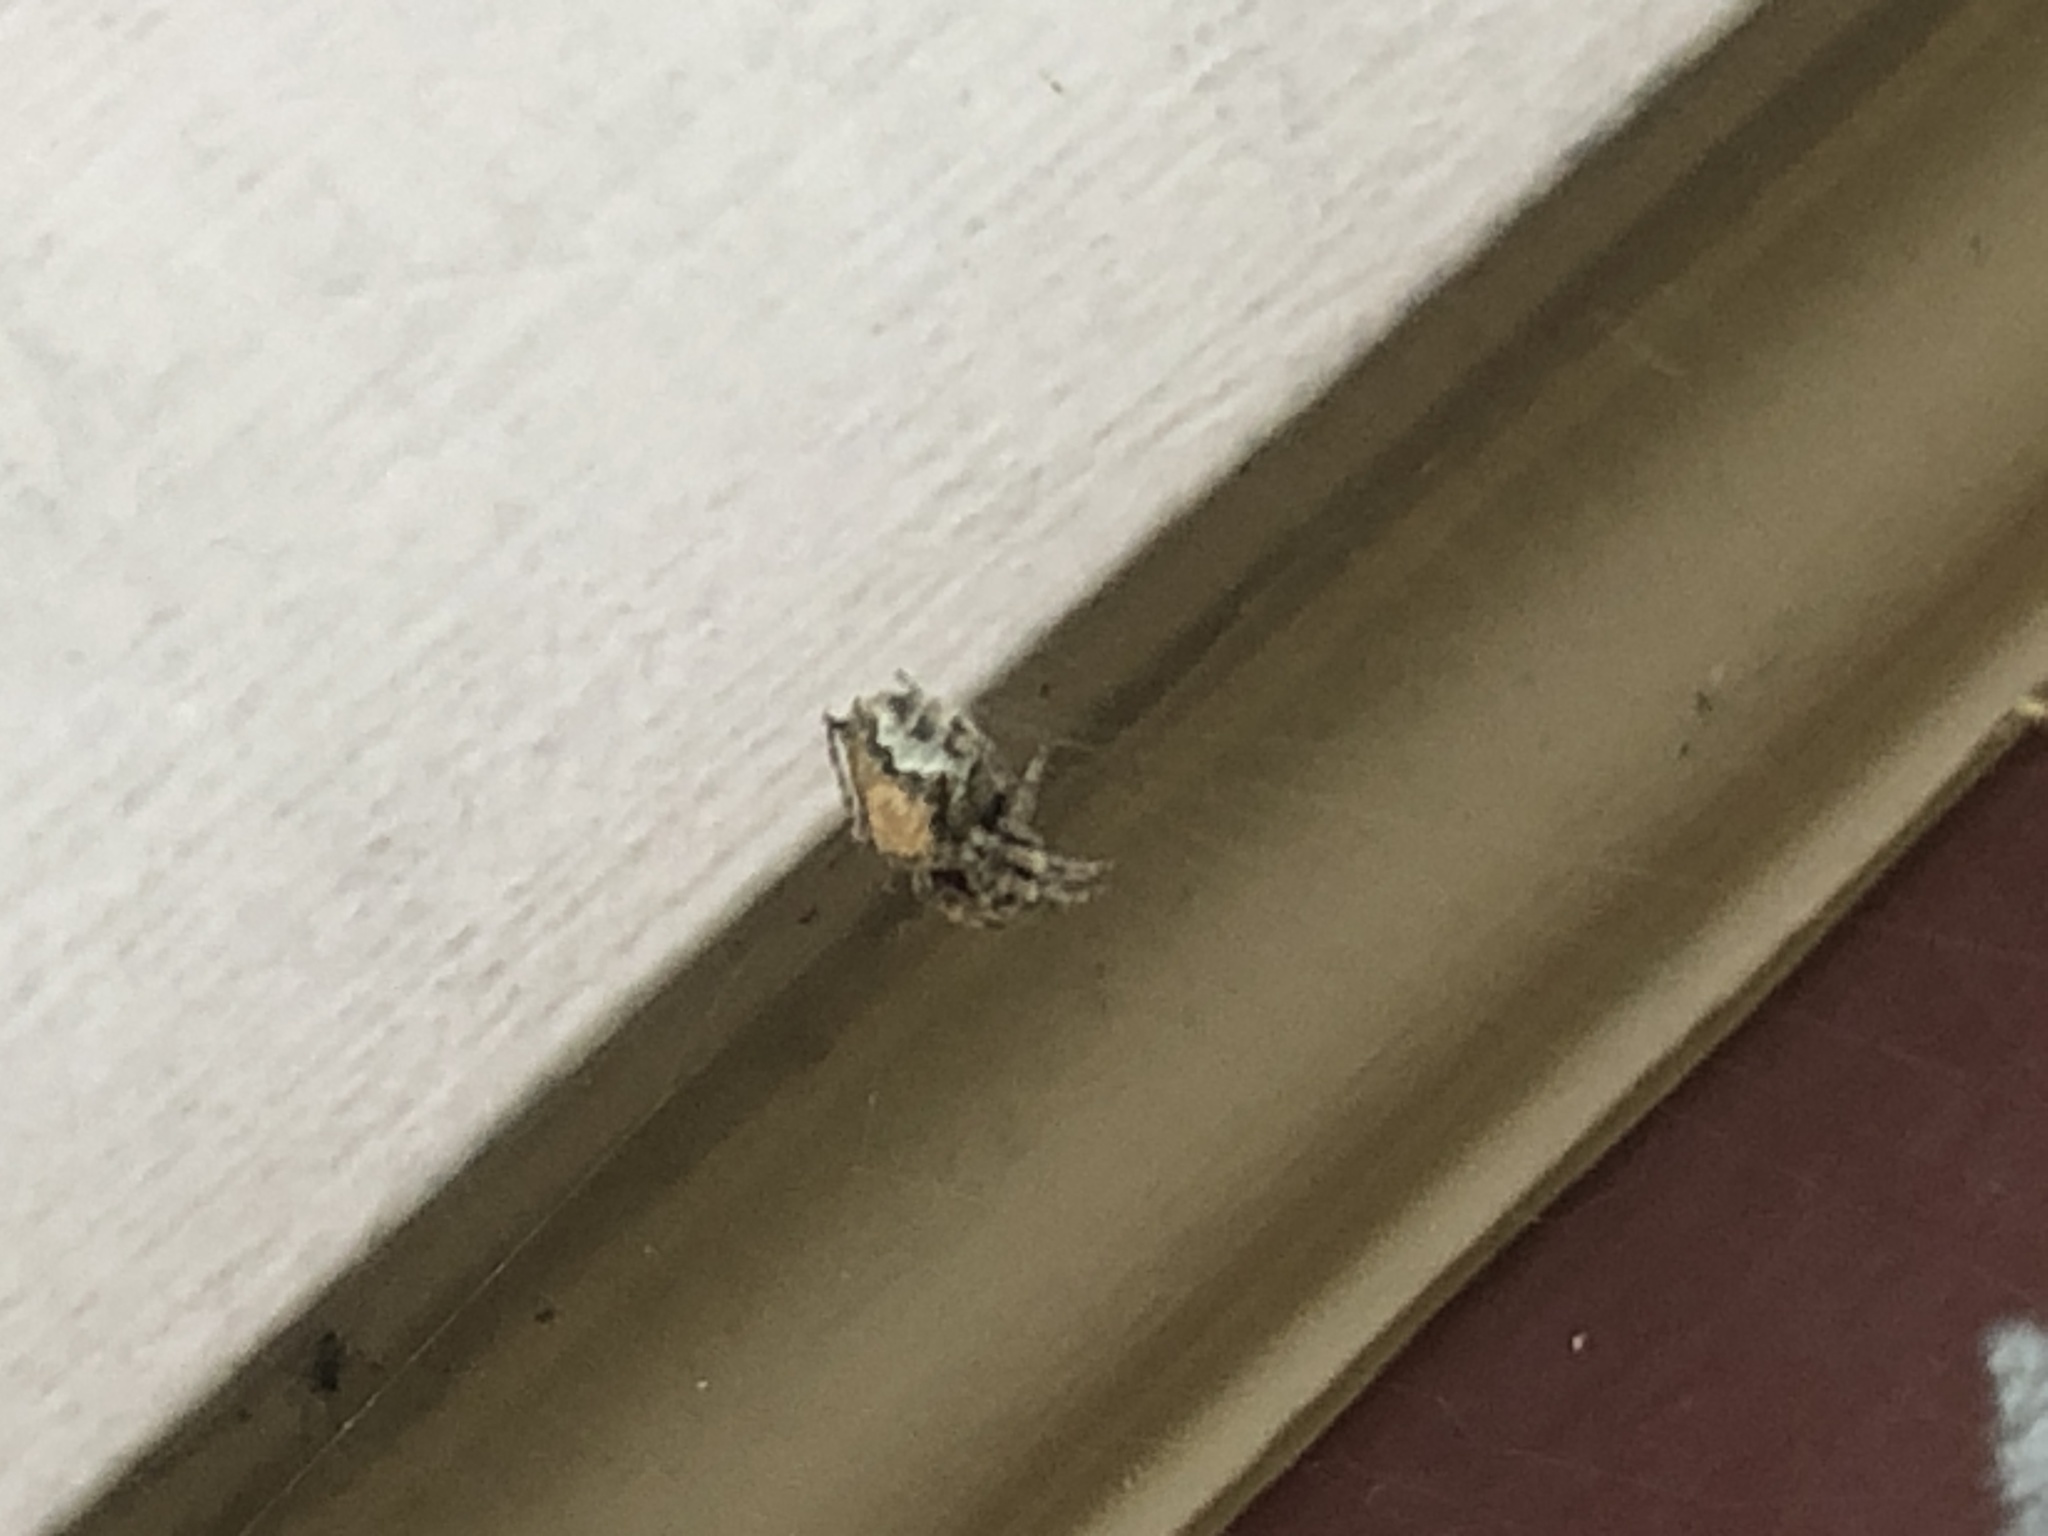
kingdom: Animalia
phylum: Arthropoda
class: Arachnida
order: Araneae
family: Araneidae
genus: Eriophora
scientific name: Eriophora pustulosa
